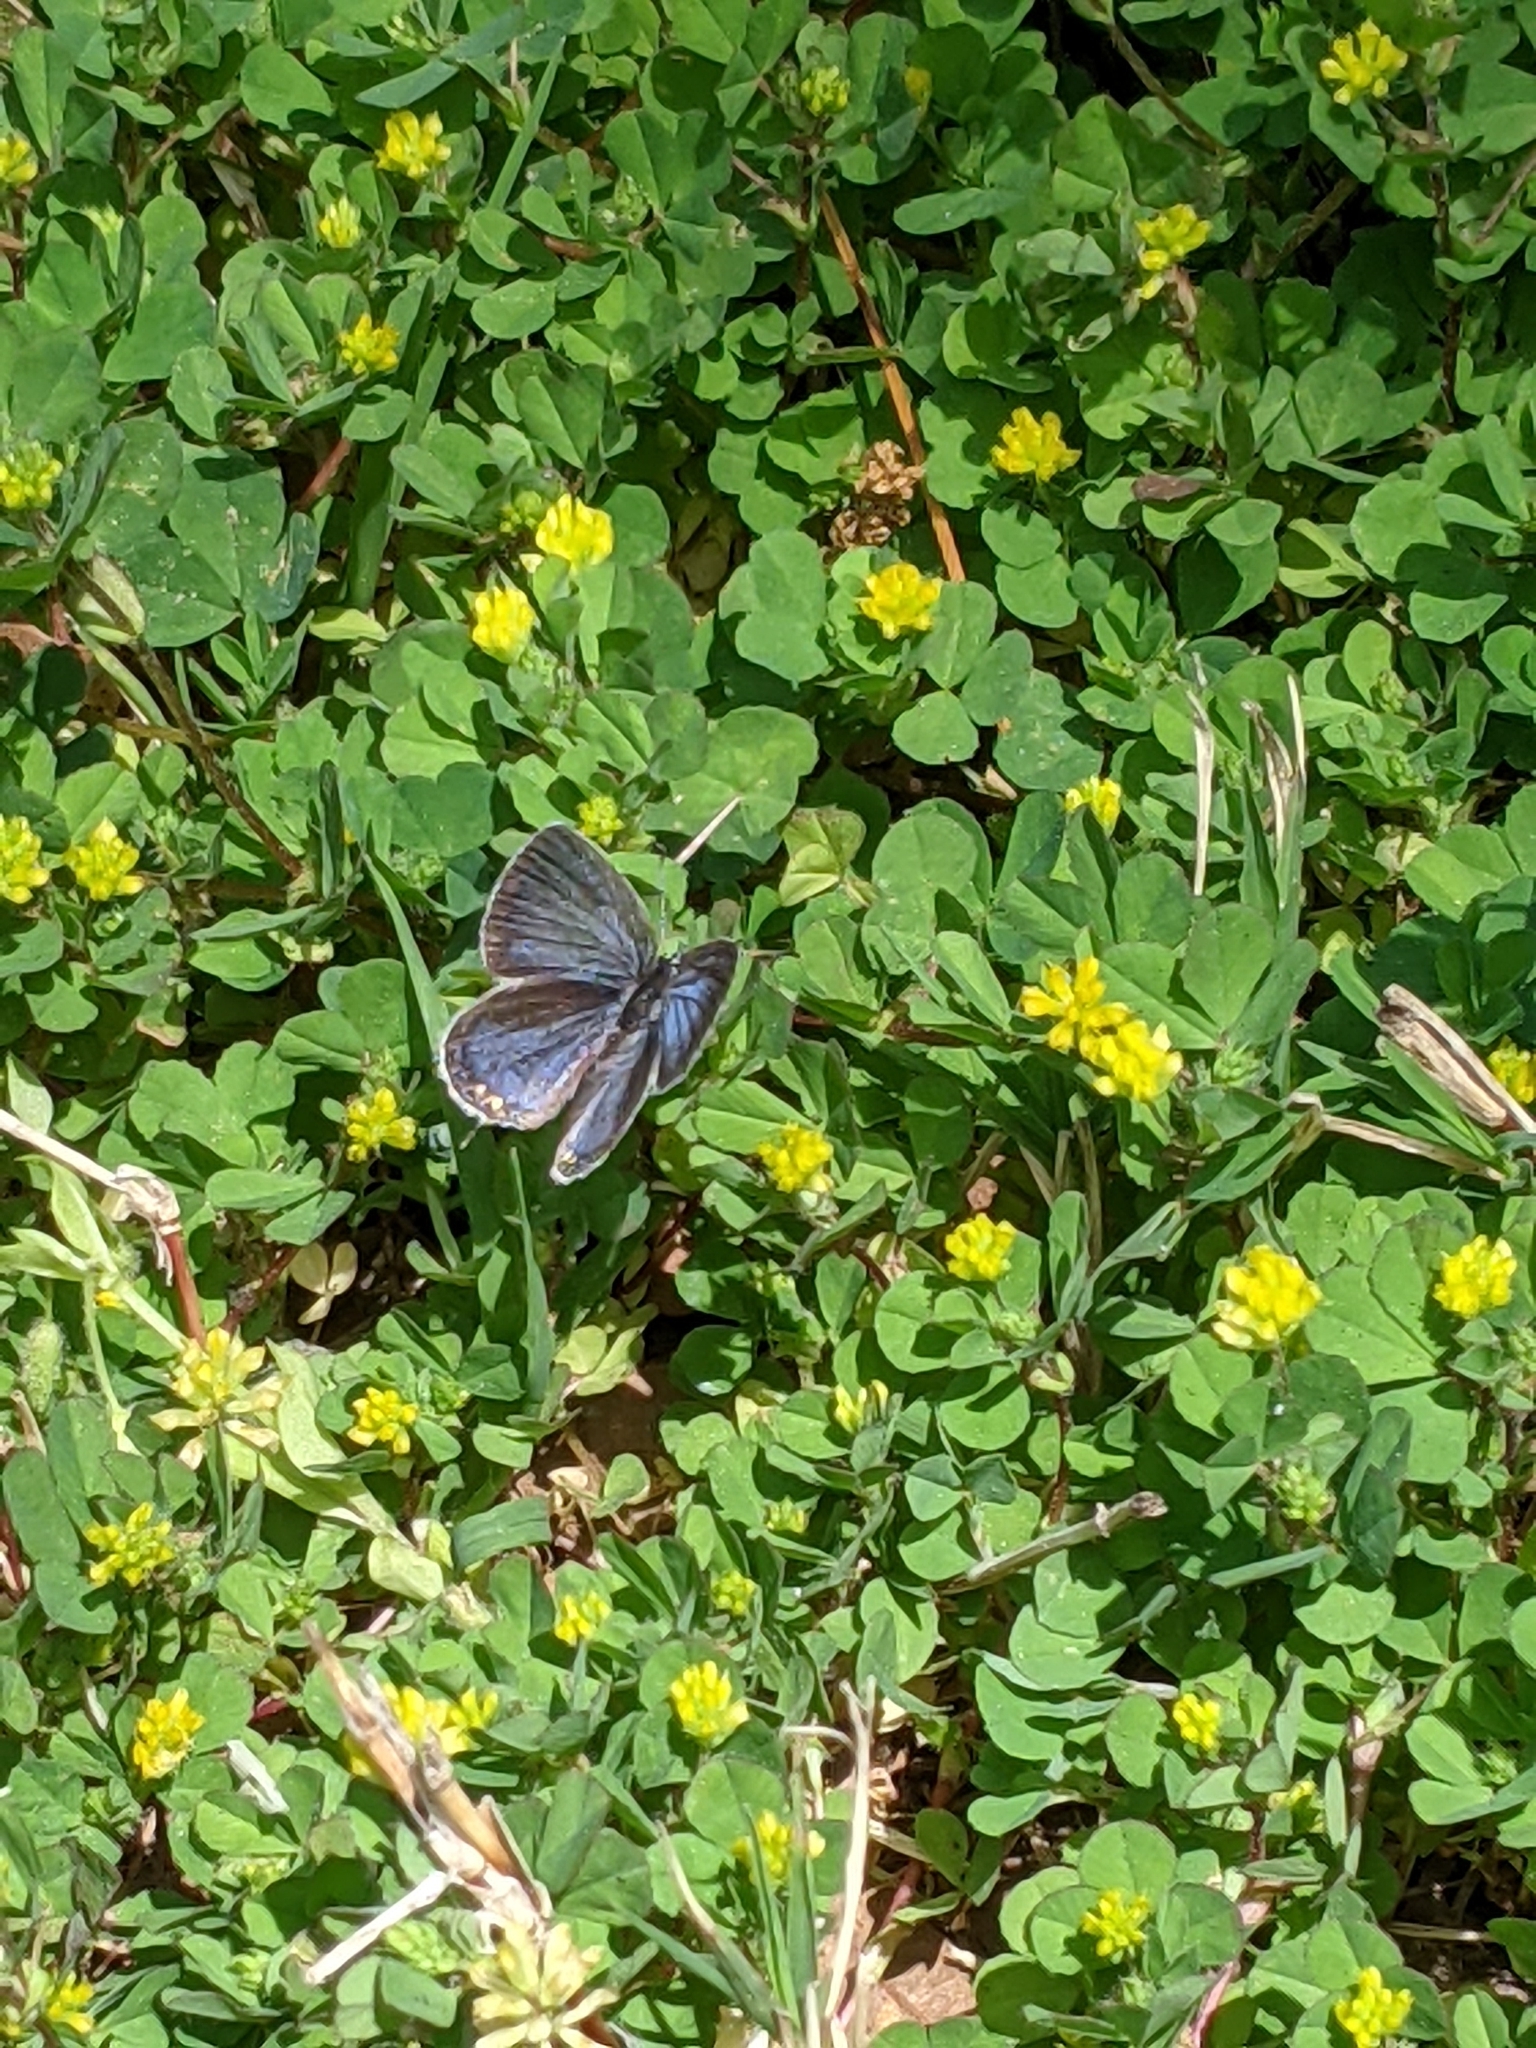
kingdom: Animalia
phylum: Arthropoda
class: Insecta
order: Lepidoptera
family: Lycaenidae
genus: Elkalyce
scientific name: Elkalyce comyntas
